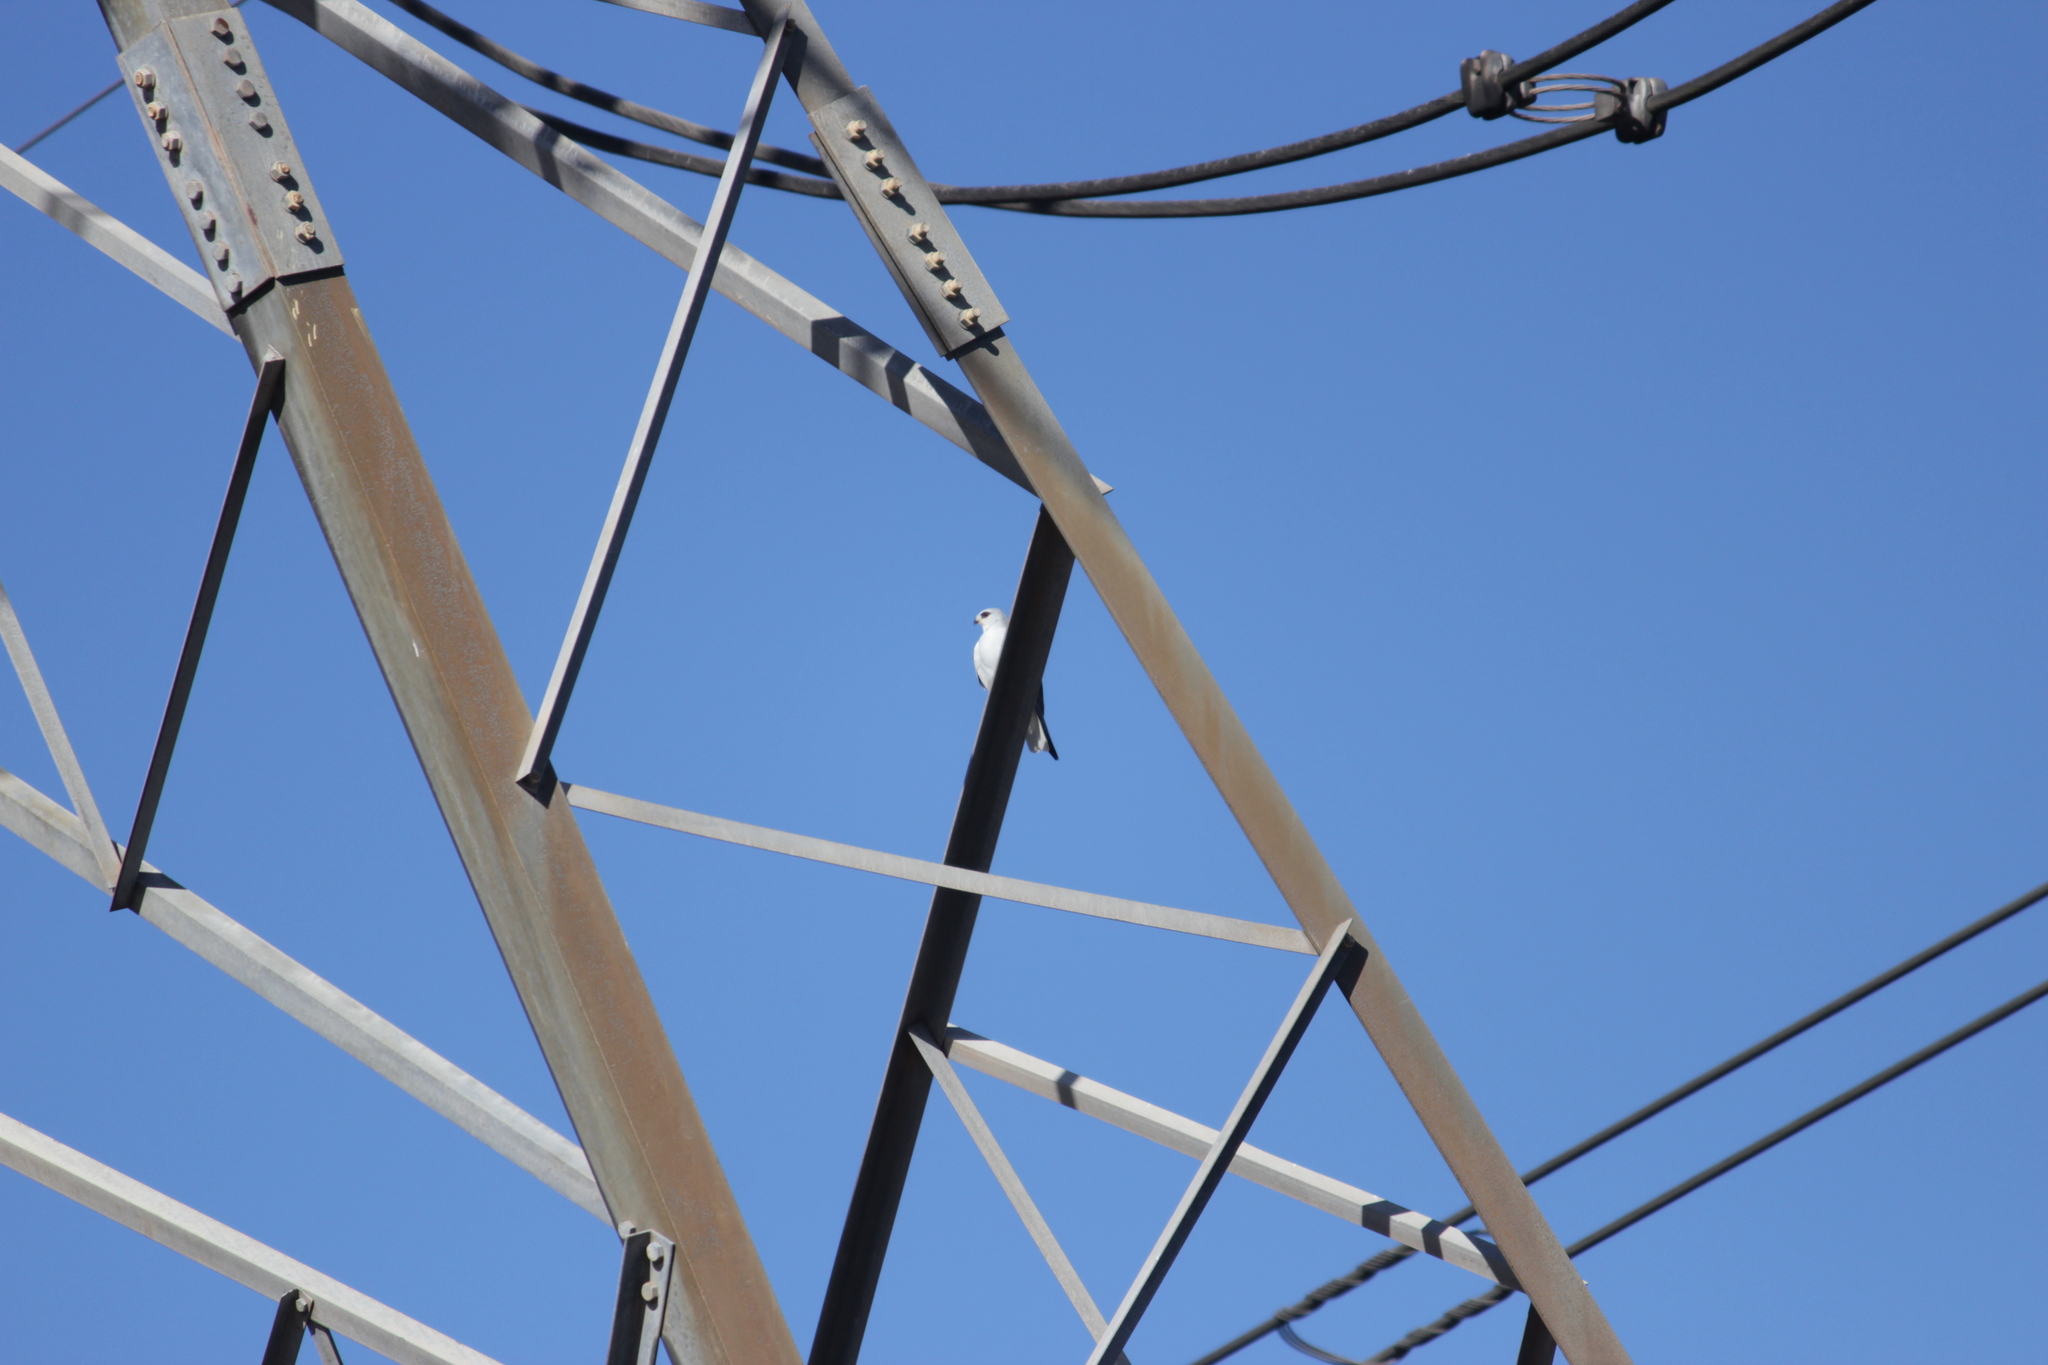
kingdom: Animalia
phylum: Chordata
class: Aves
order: Accipitriformes
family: Accipitridae
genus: Elanus
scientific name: Elanus caeruleus
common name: Black-winged kite
